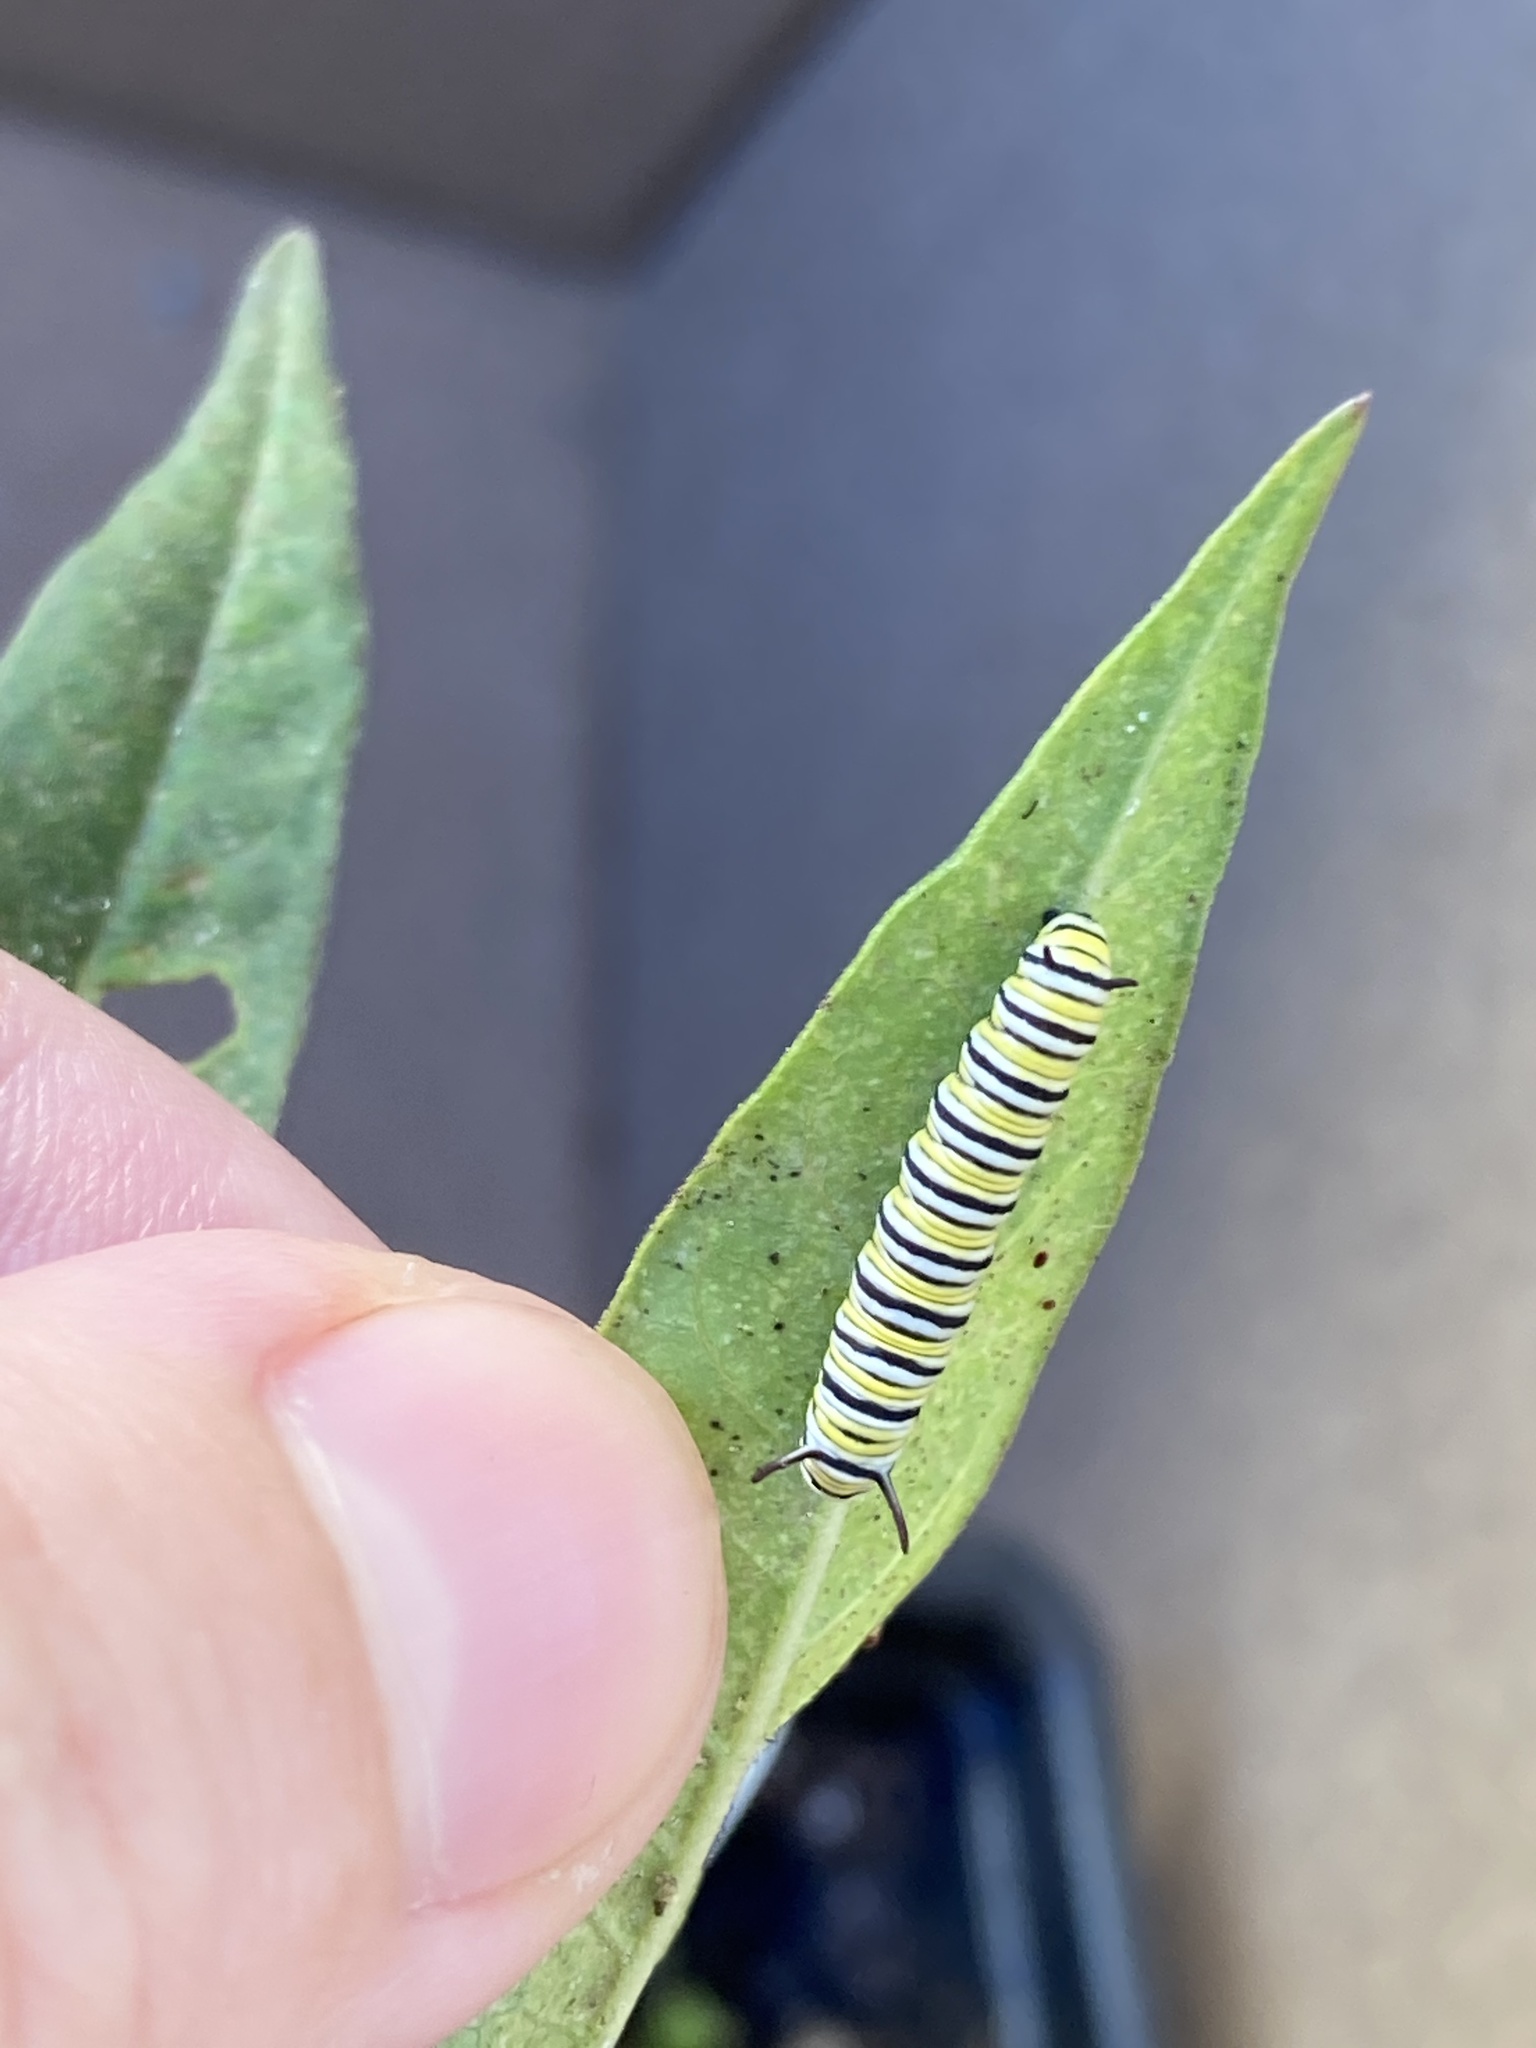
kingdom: Animalia
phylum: Arthropoda
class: Insecta
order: Lepidoptera
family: Nymphalidae
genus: Danaus
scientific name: Danaus plexippus
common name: Monarch
